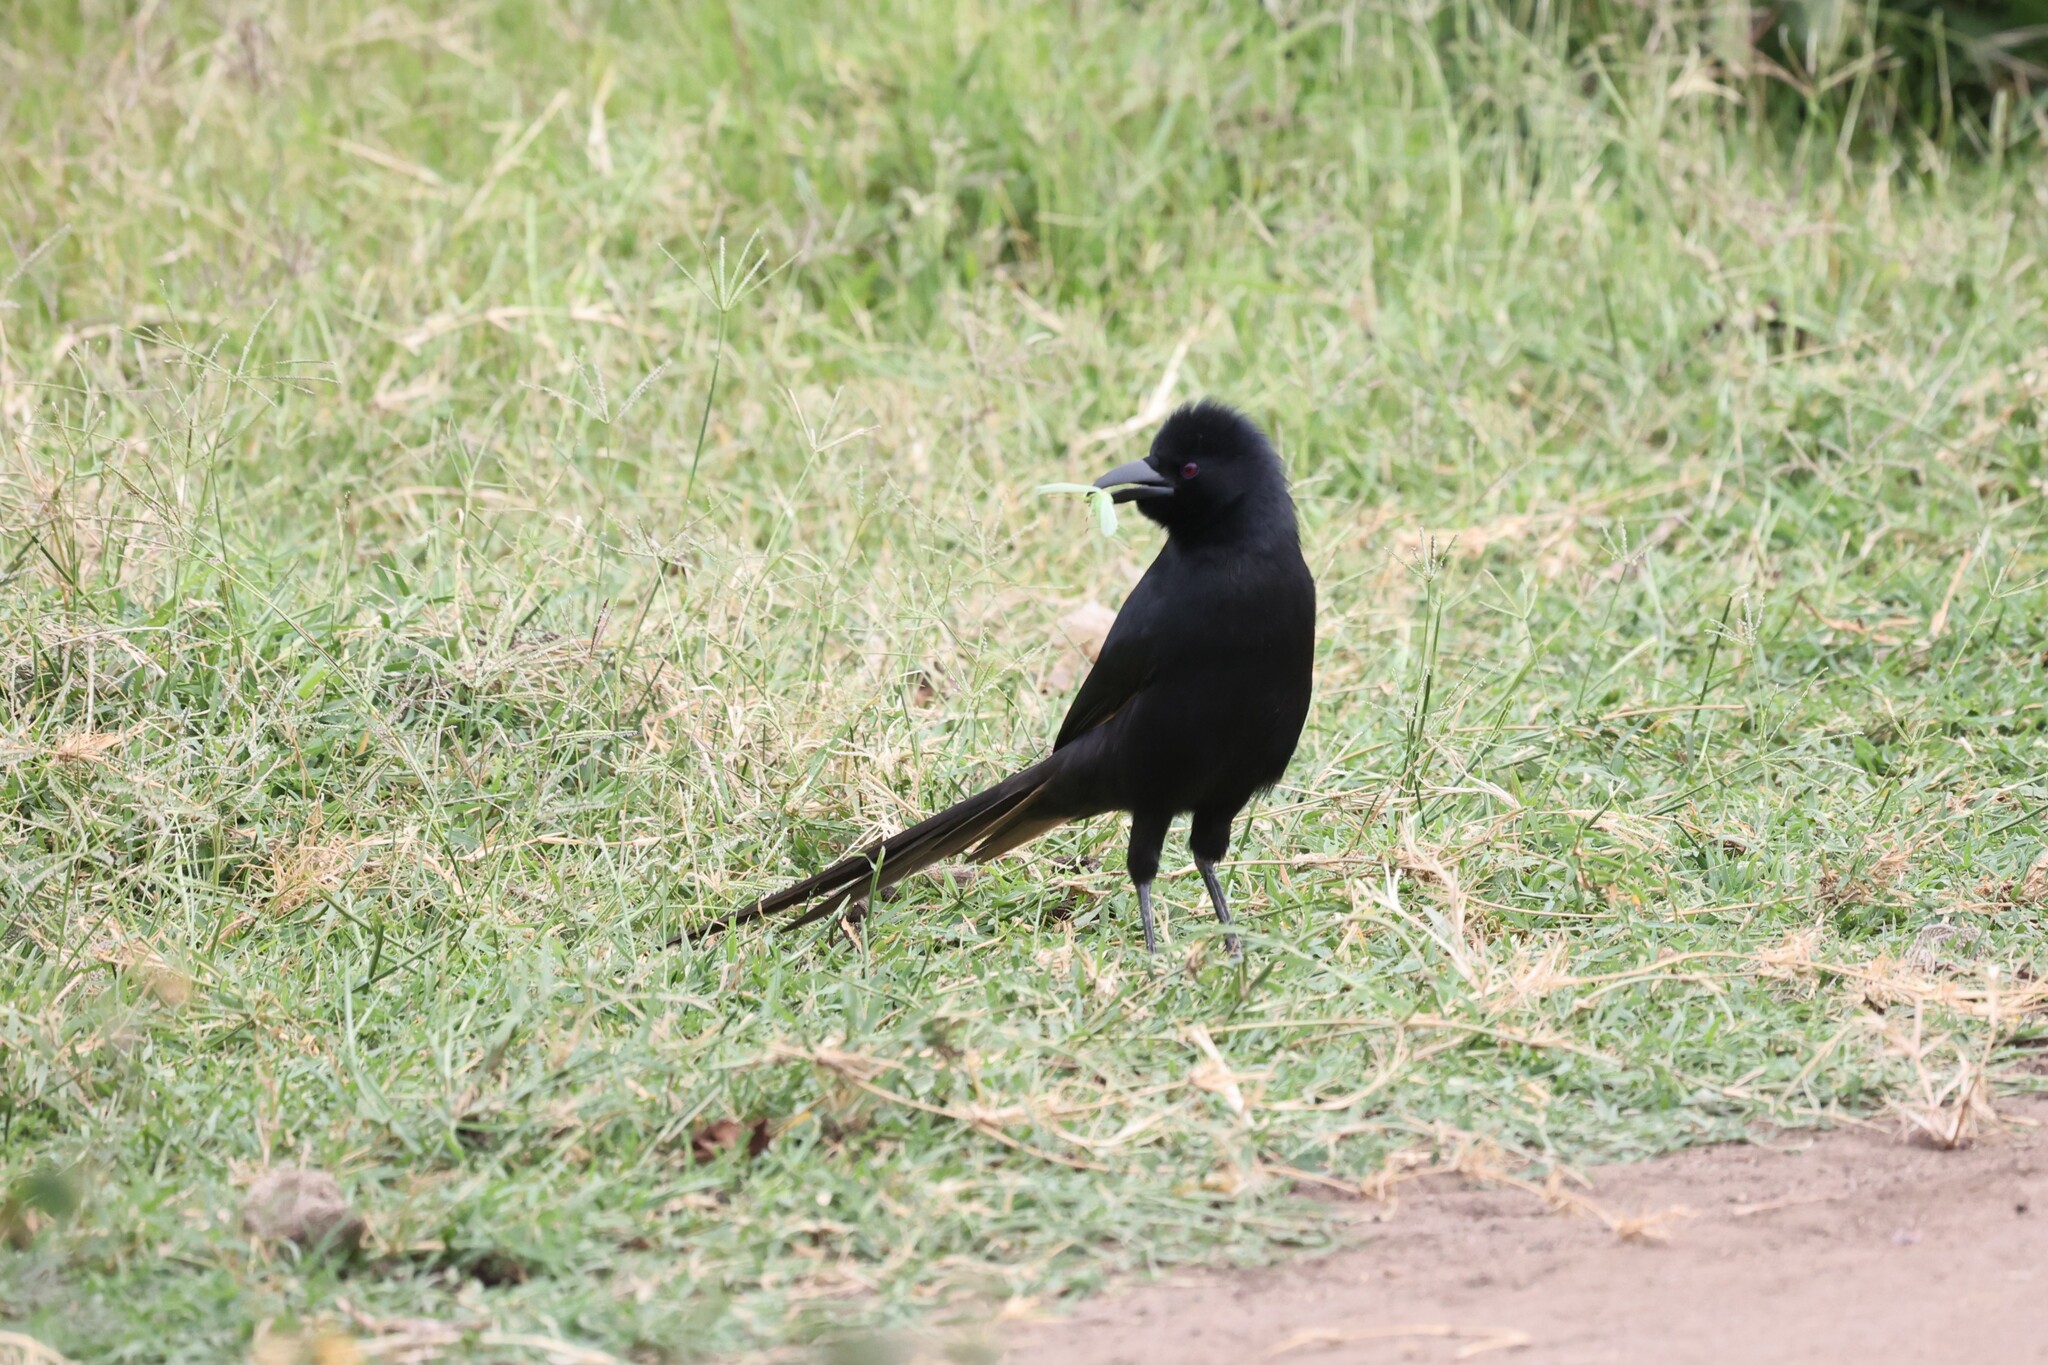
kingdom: Animalia
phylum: Chordata
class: Aves
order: Passeriformes
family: Corvidae
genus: Ptilostomus
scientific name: Ptilostomus afer
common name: Piapiac
